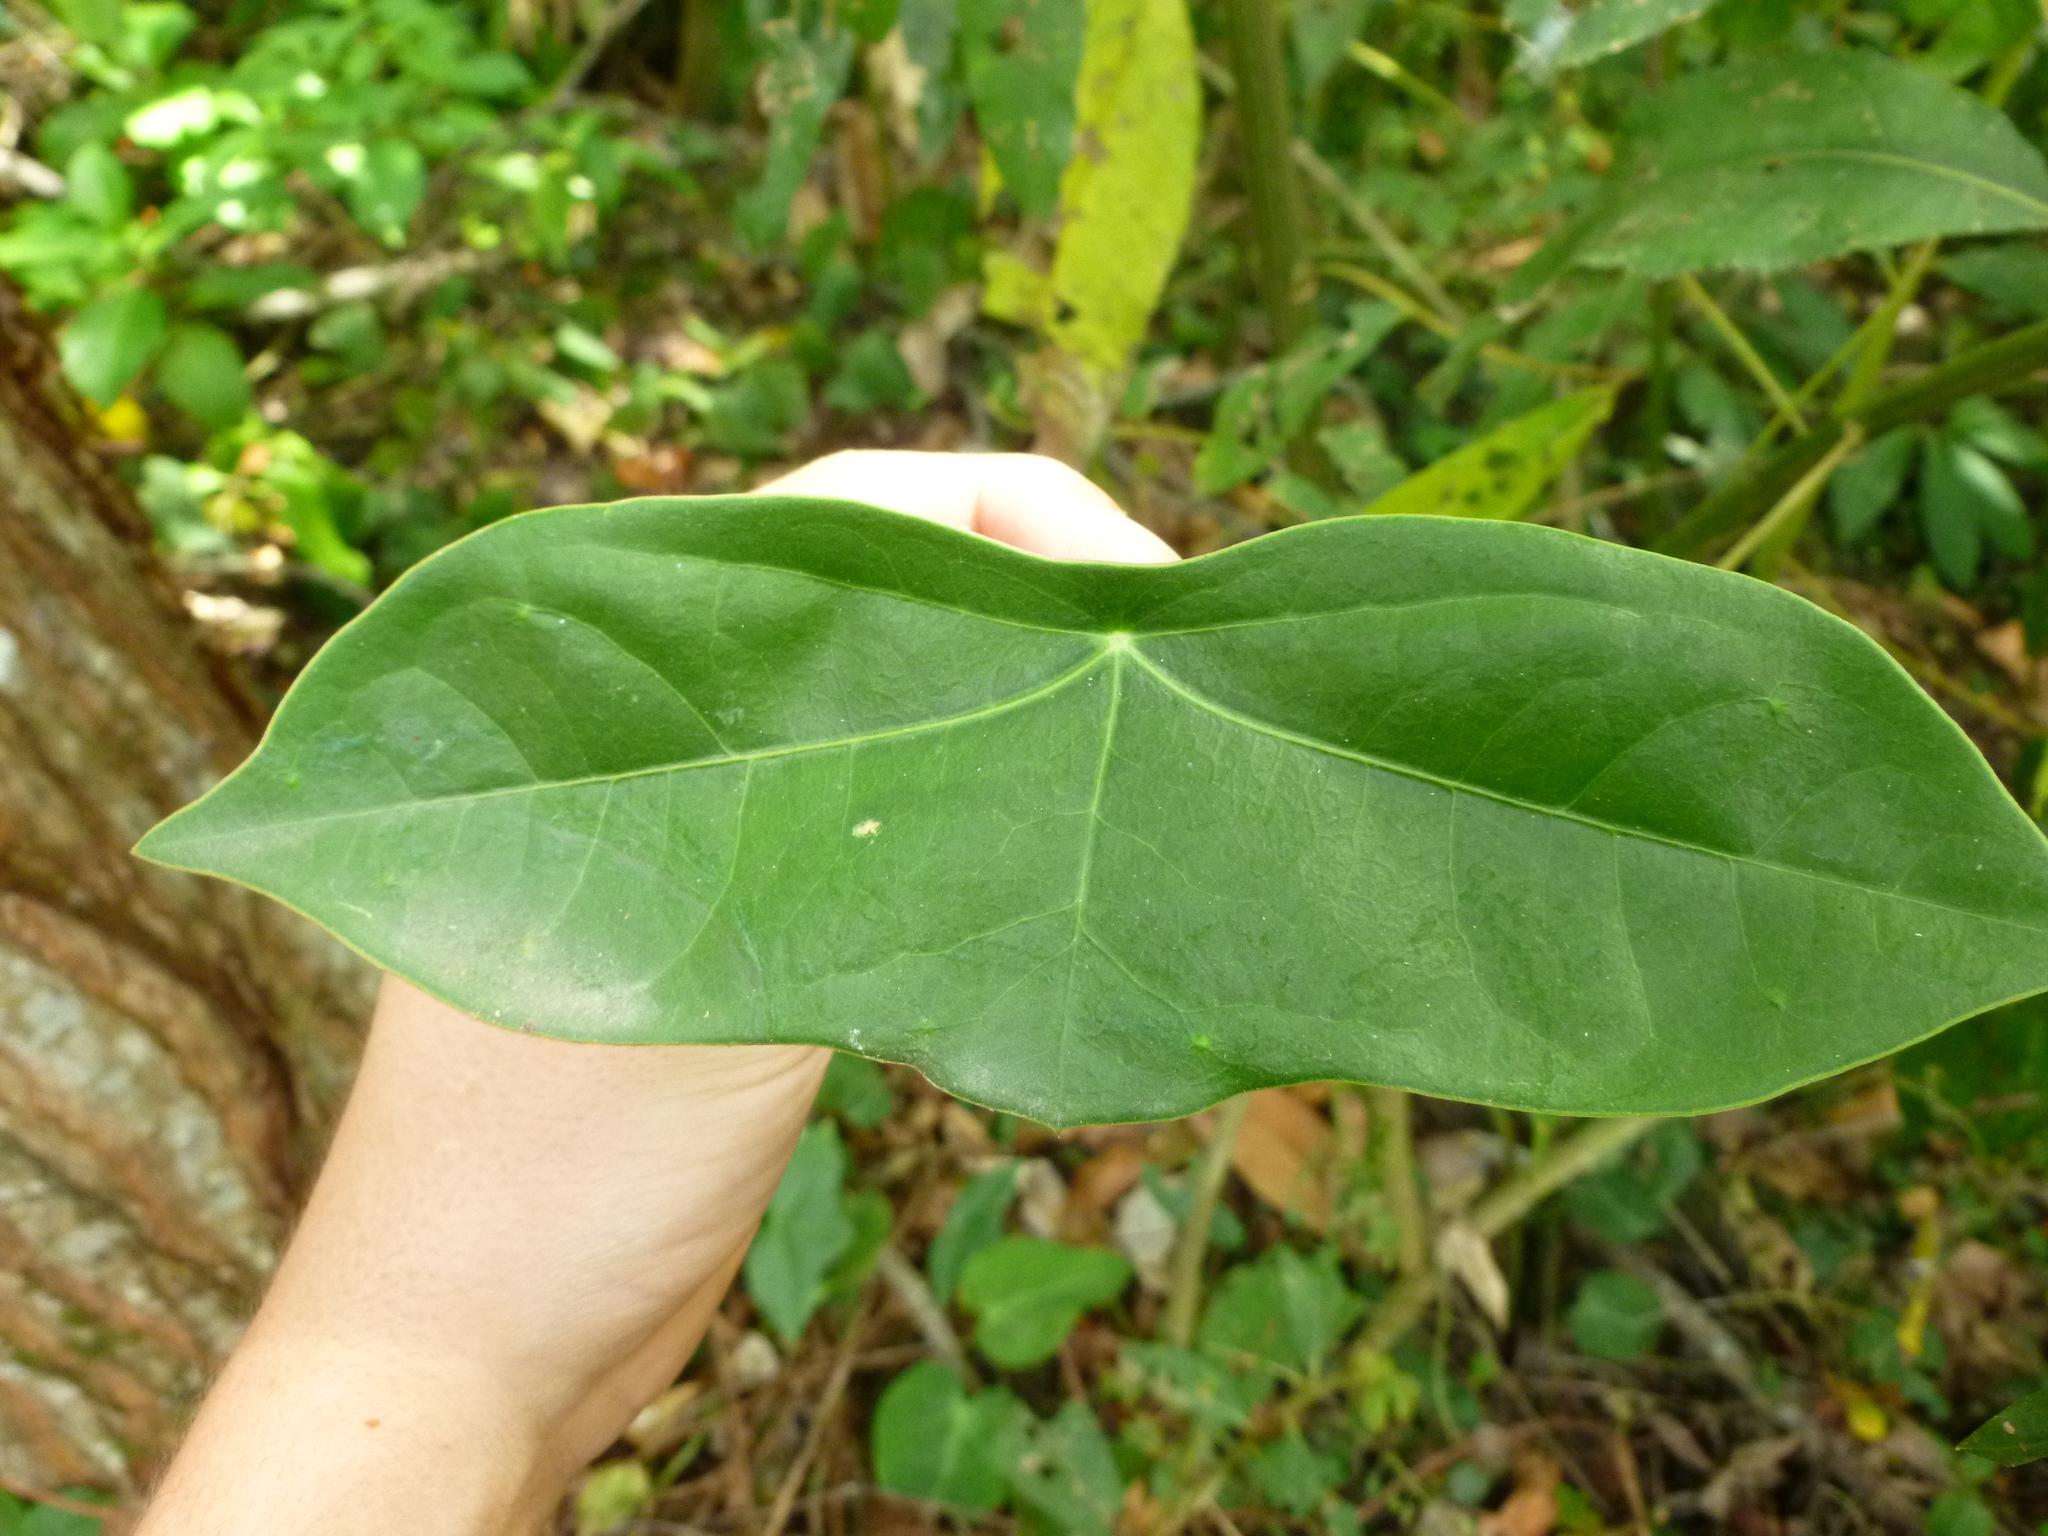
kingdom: Plantae
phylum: Tracheophyta
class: Magnoliopsida
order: Malpighiales
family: Passifloraceae
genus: Passiflora
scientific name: Passiflora coriacea
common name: Bat-leaf passionflower
